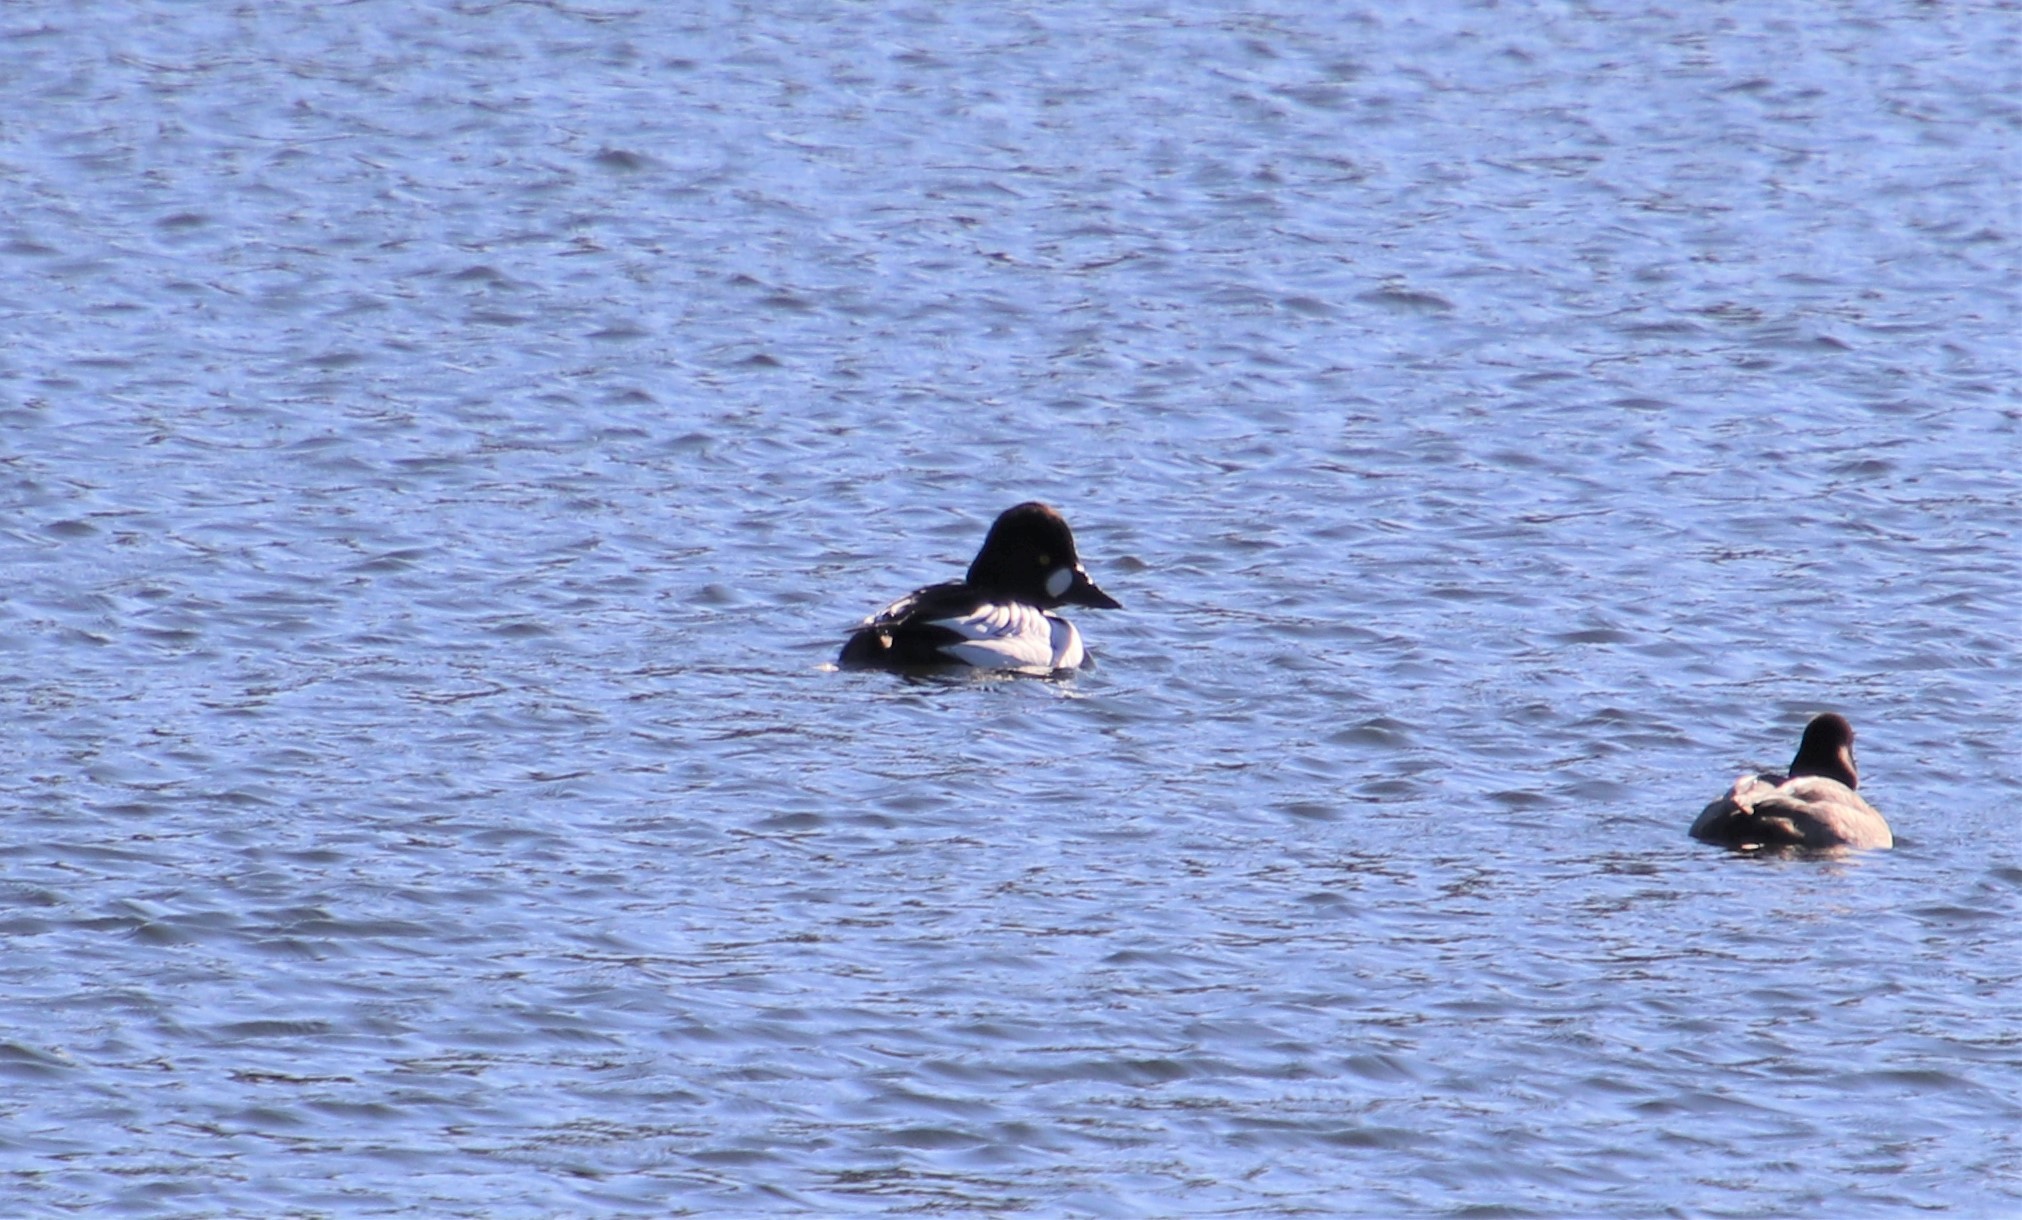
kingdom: Animalia
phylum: Chordata
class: Aves
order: Anseriformes
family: Anatidae
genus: Bucephala
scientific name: Bucephala clangula
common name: Common goldeneye
